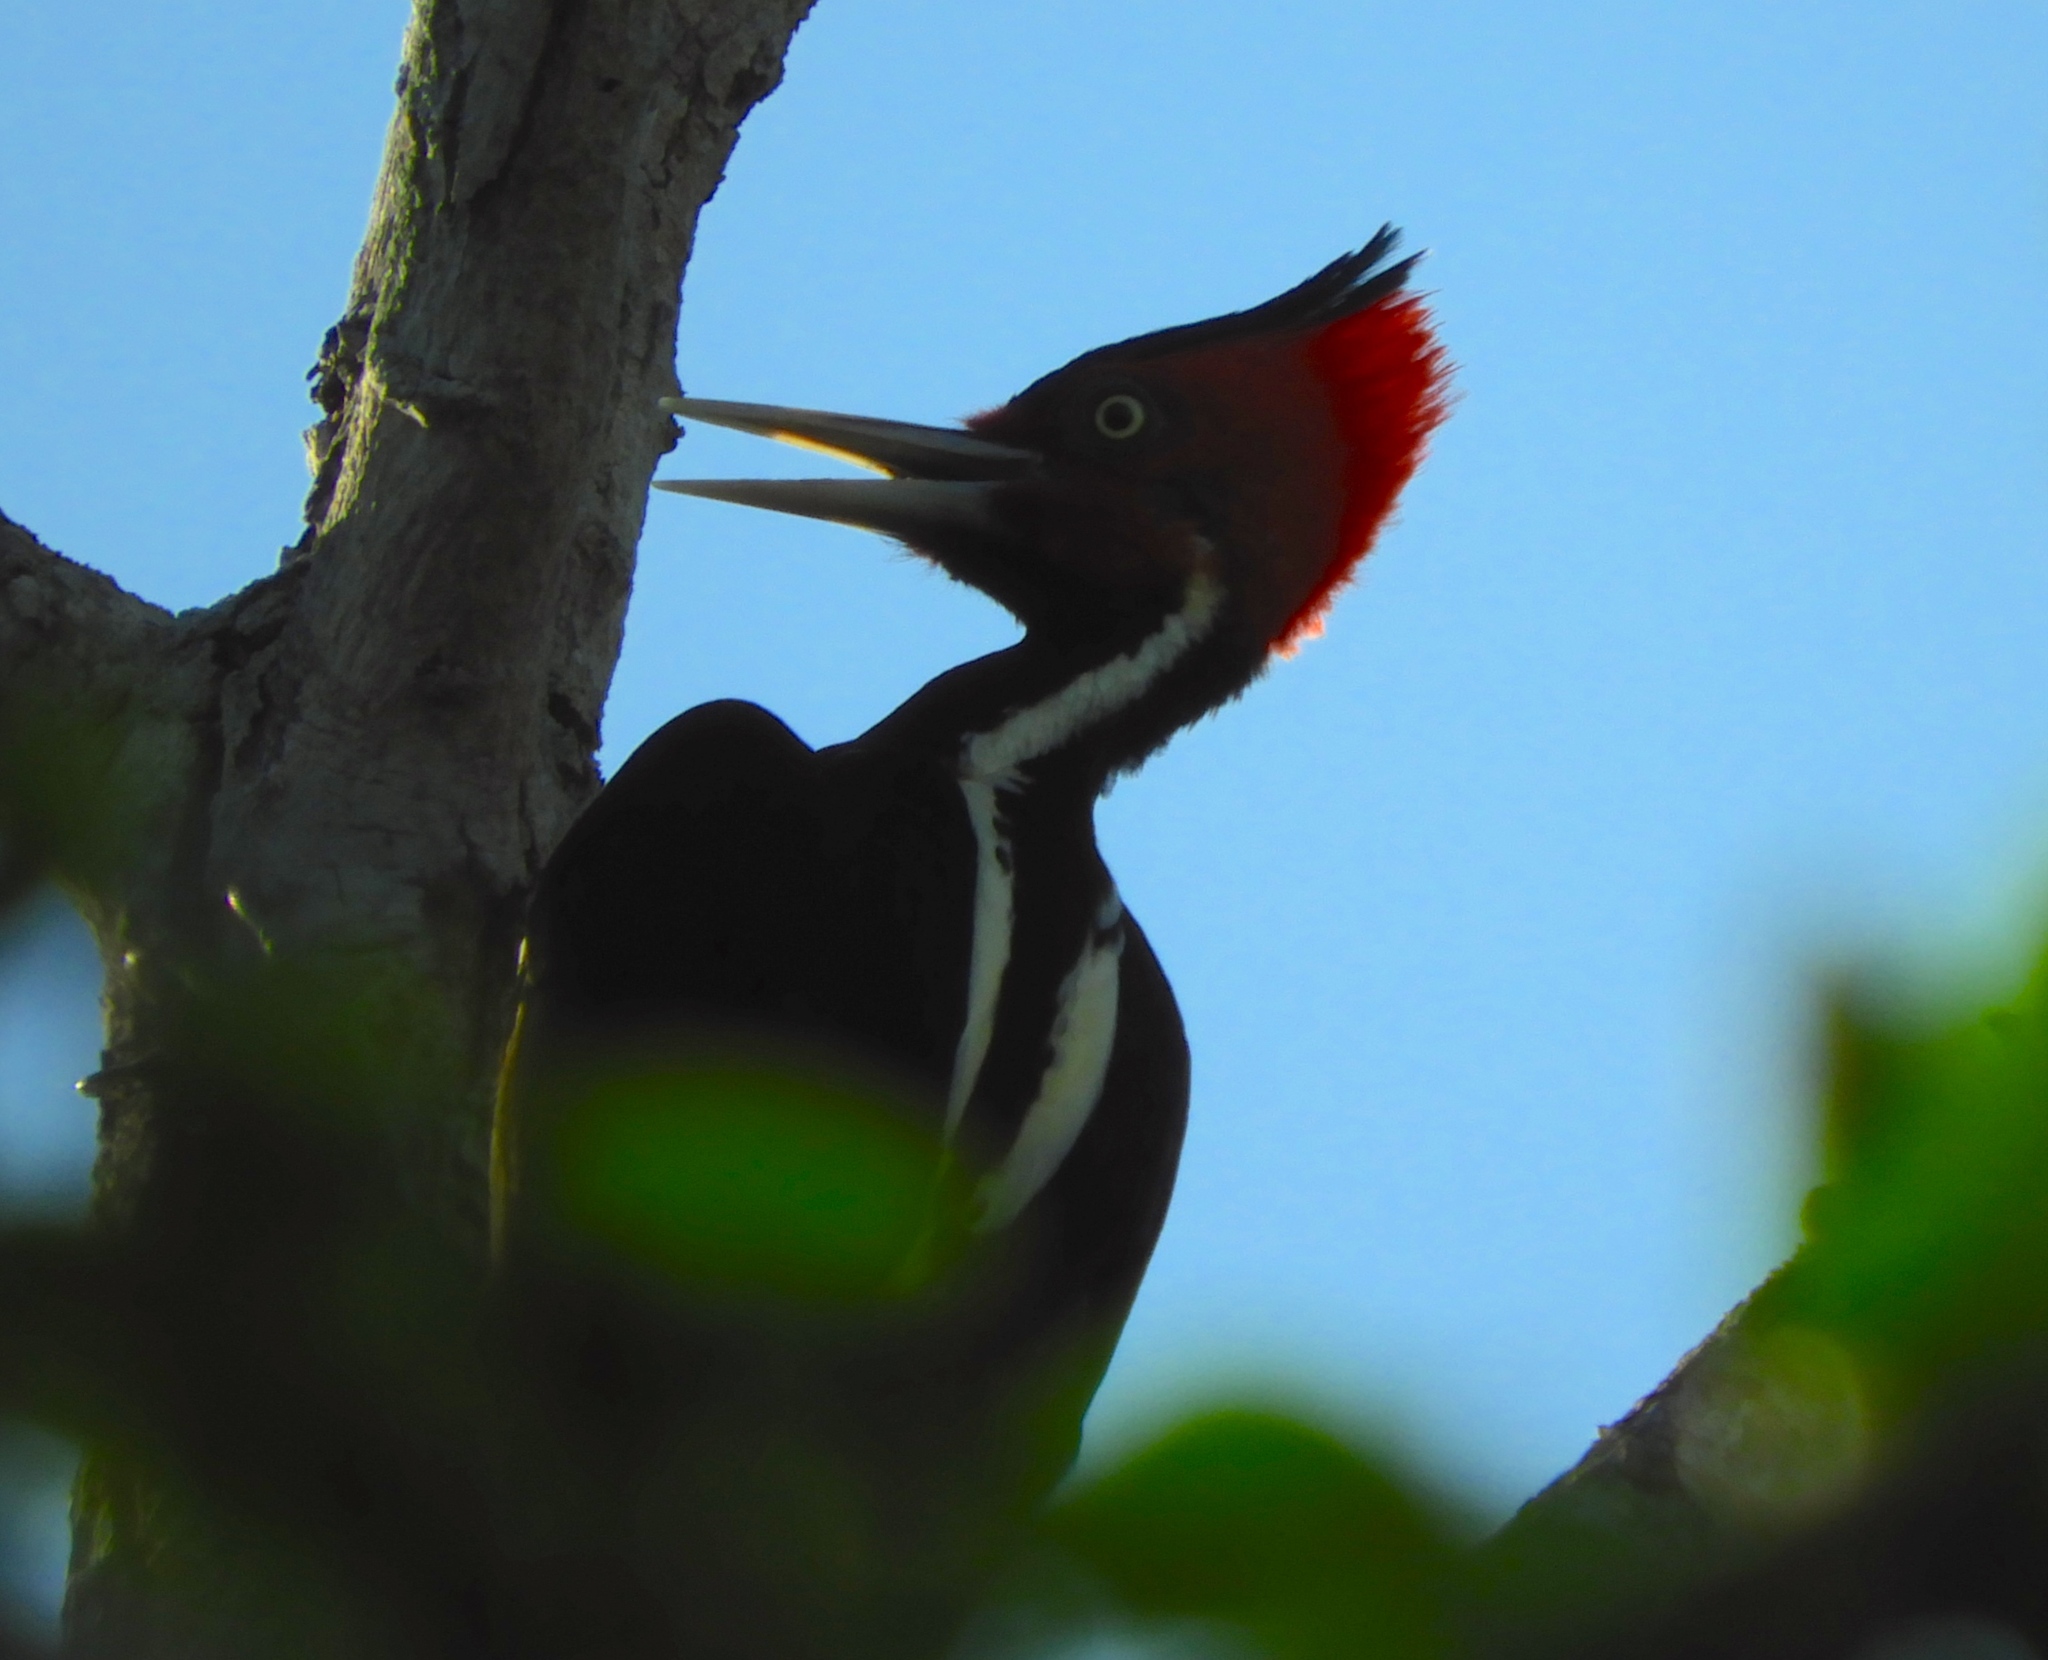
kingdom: Animalia
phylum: Chordata
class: Aves
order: Piciformes
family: Picidae
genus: Dryocopus
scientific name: Dryocopus lineatus
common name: Lineated woodpecker
